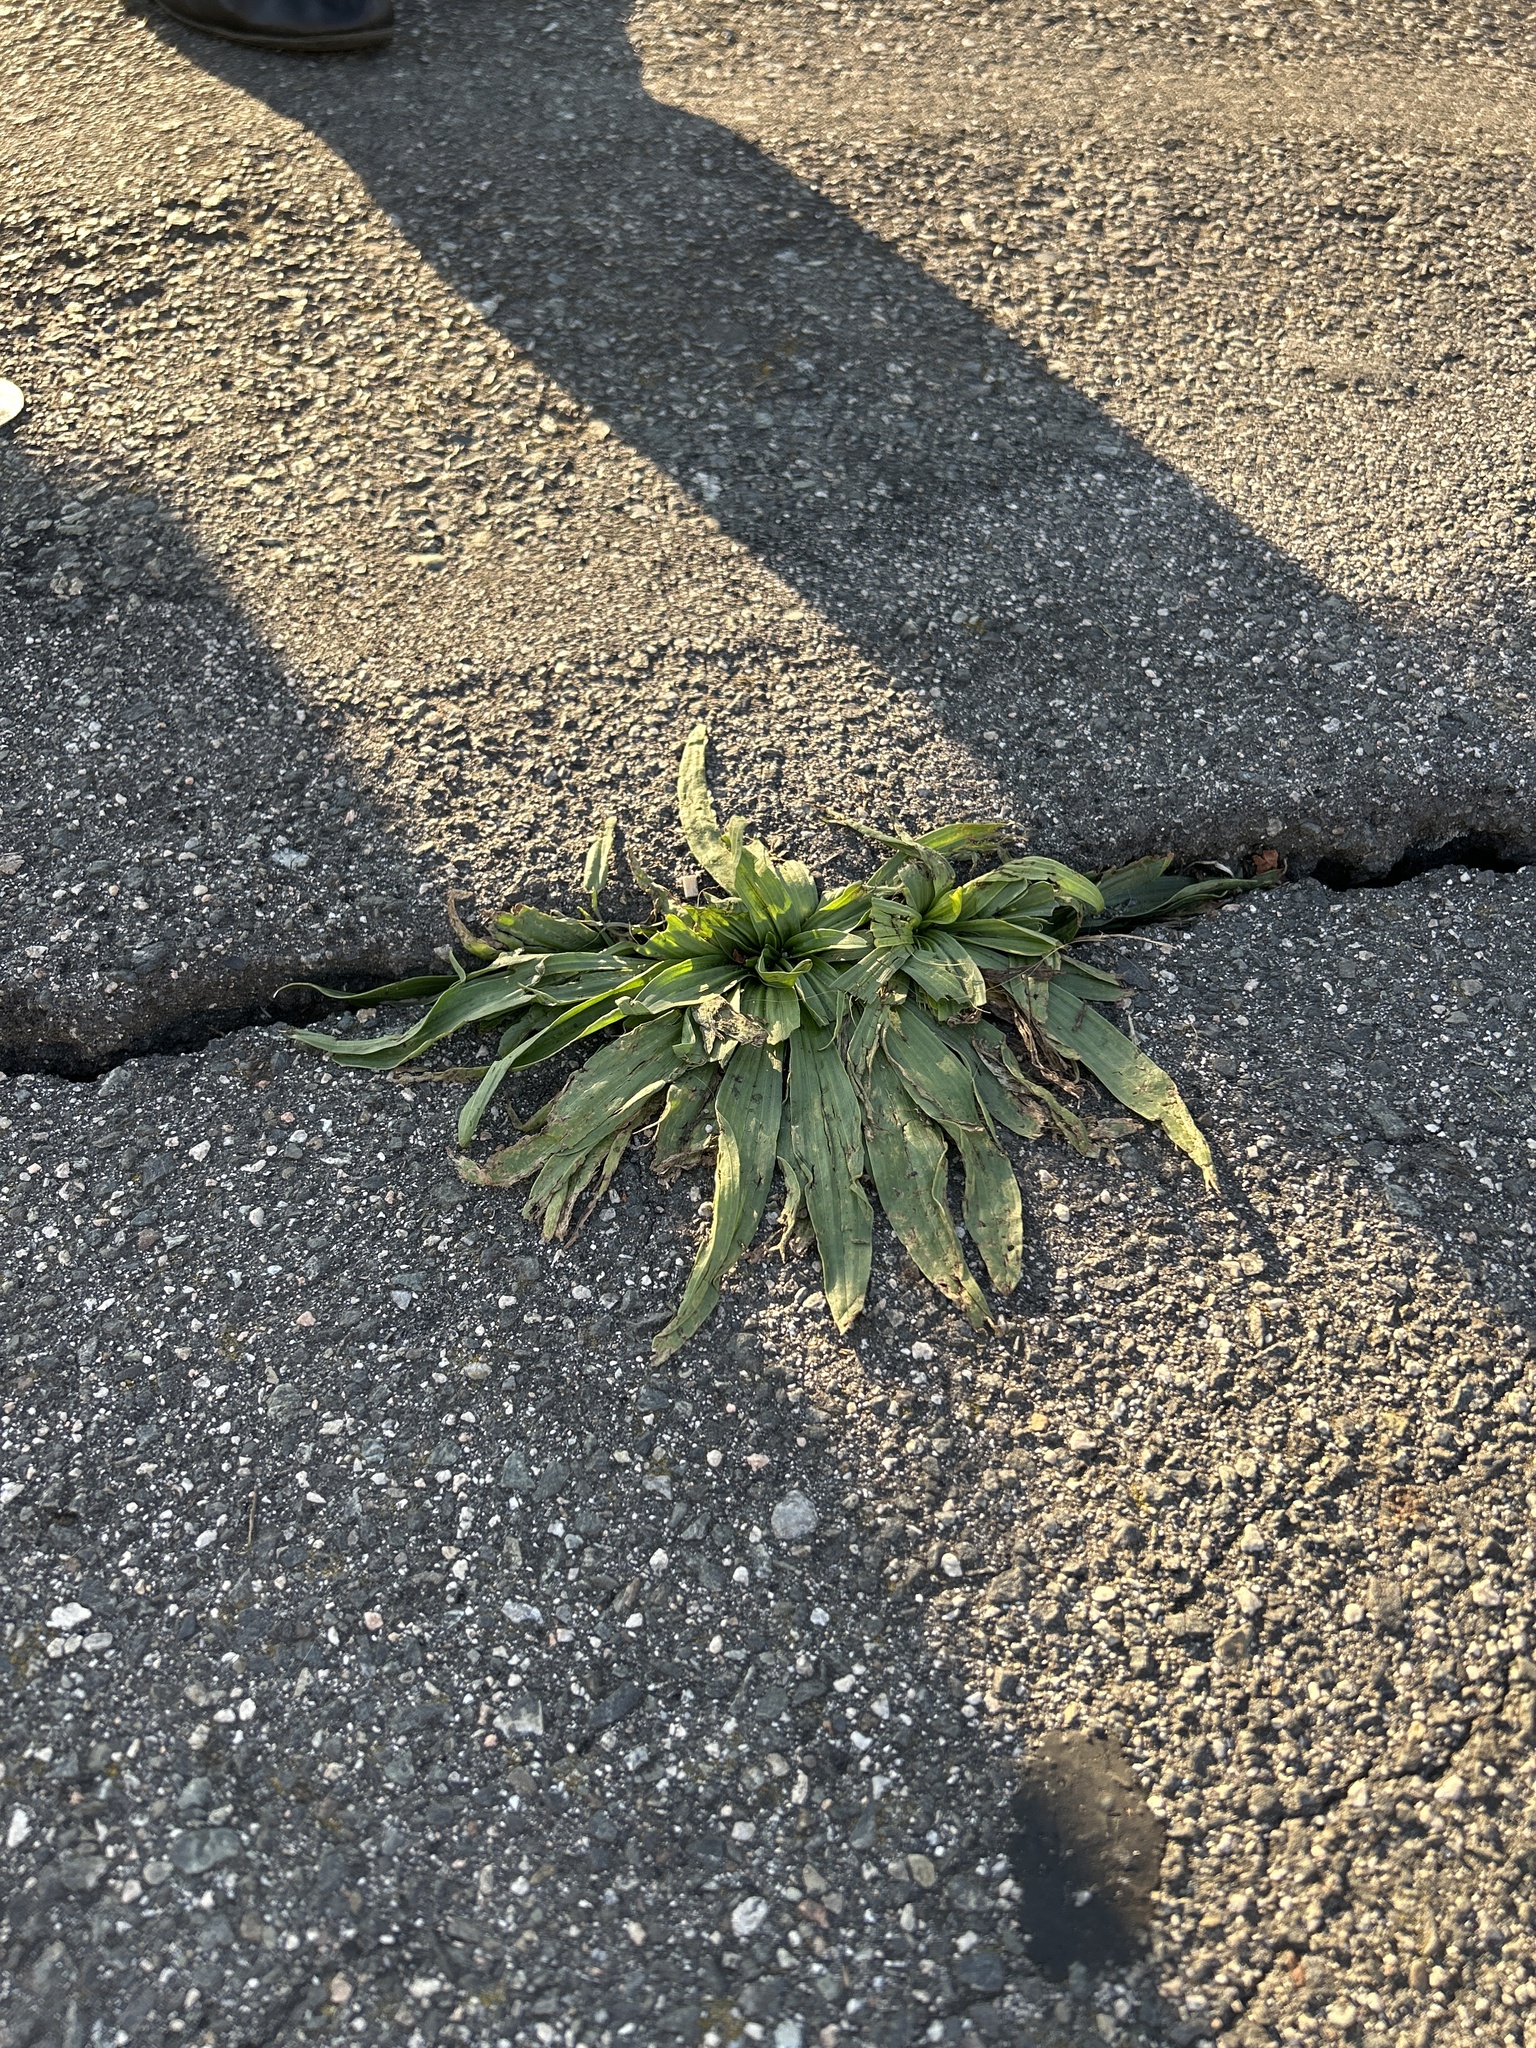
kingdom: Plantae
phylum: Tracheophyta
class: Magnoliopsida
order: Lamiales
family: Plantaginaceae
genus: Plantago
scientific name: Plantago lanceolata
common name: Ribwort plantain
